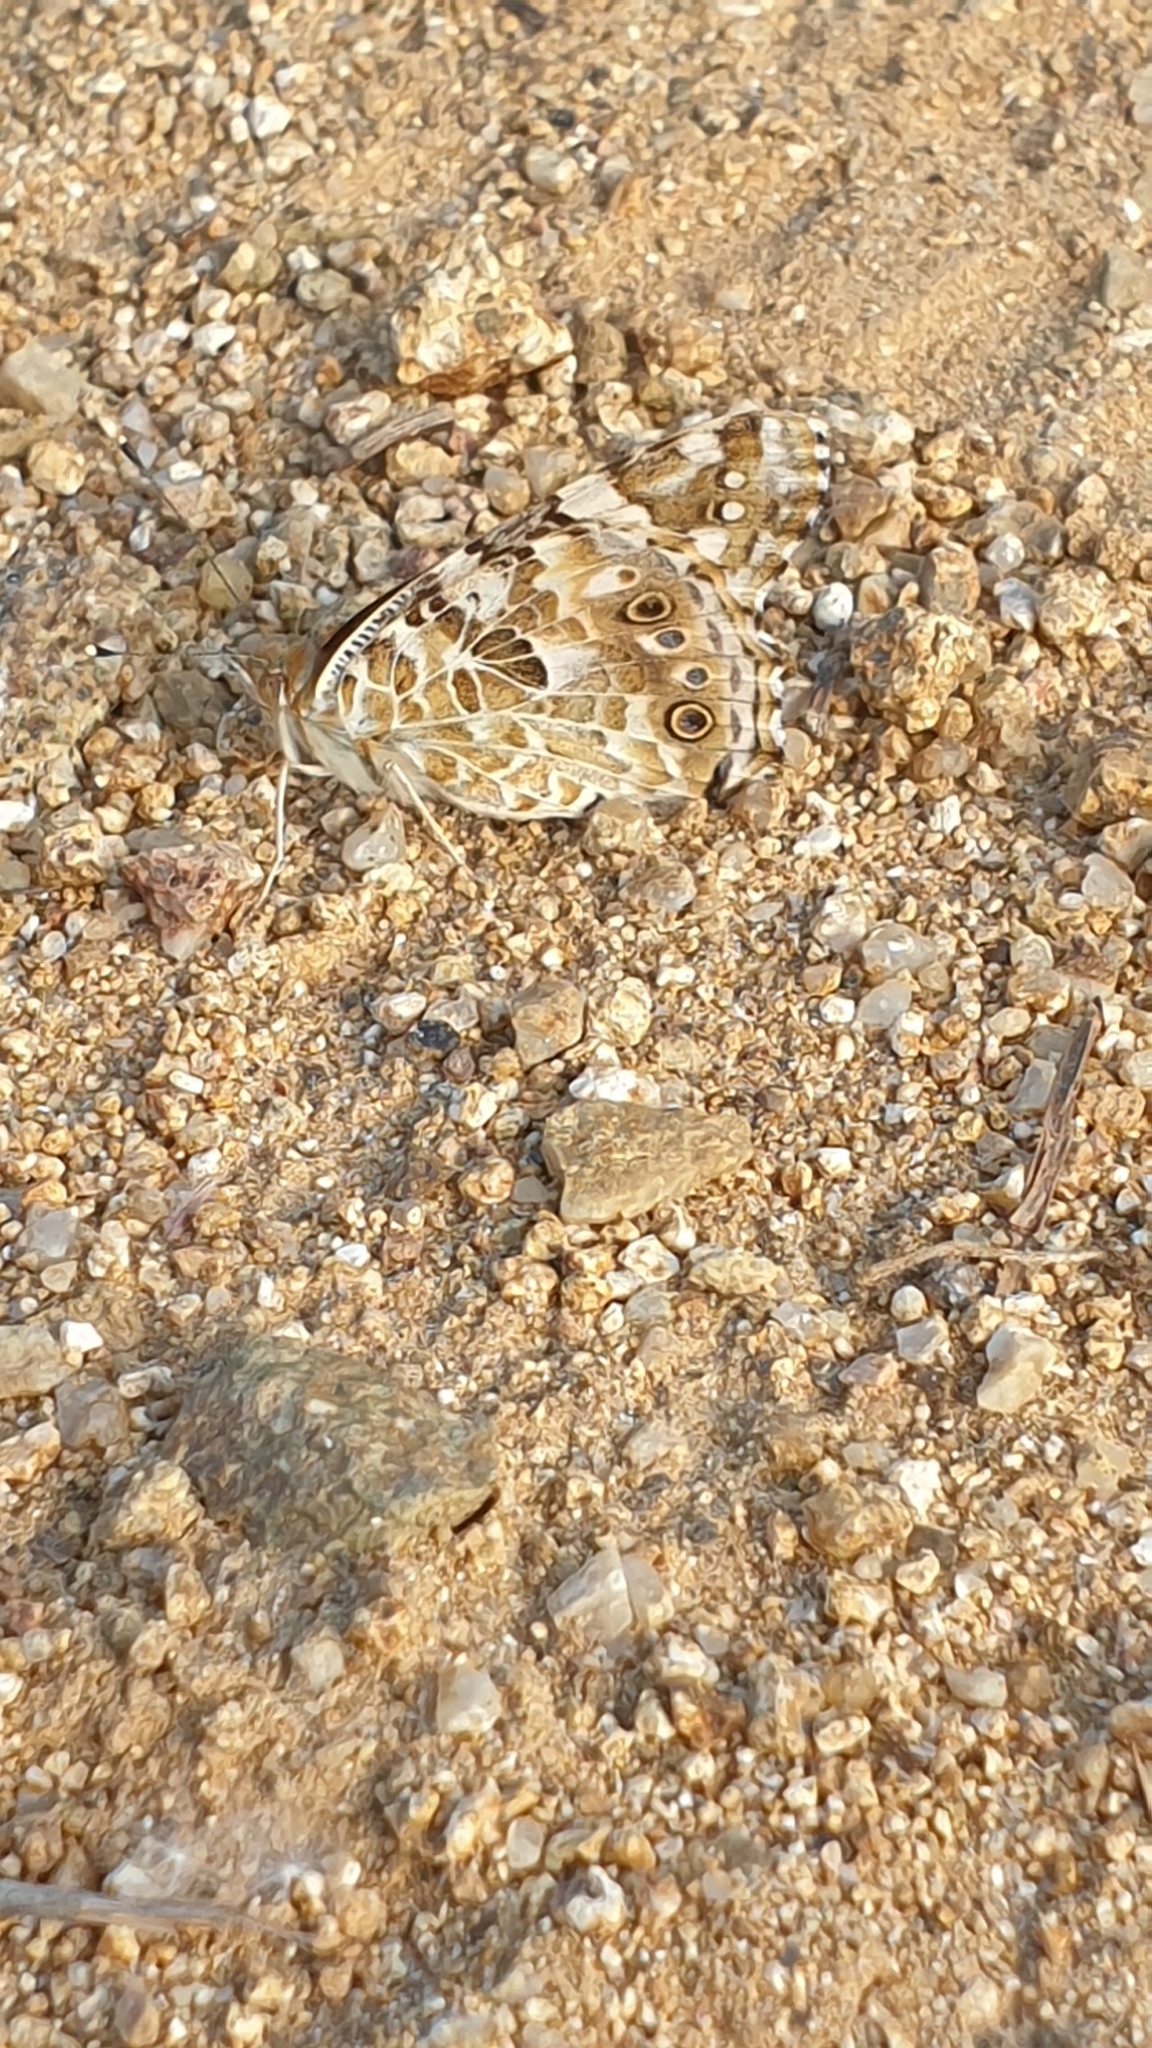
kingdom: Animalia
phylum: Arthropoda
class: Insecta
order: Lepidoptera
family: Nymphalidae
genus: Vanessa
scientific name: Vanessa cardui
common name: Painted lady
